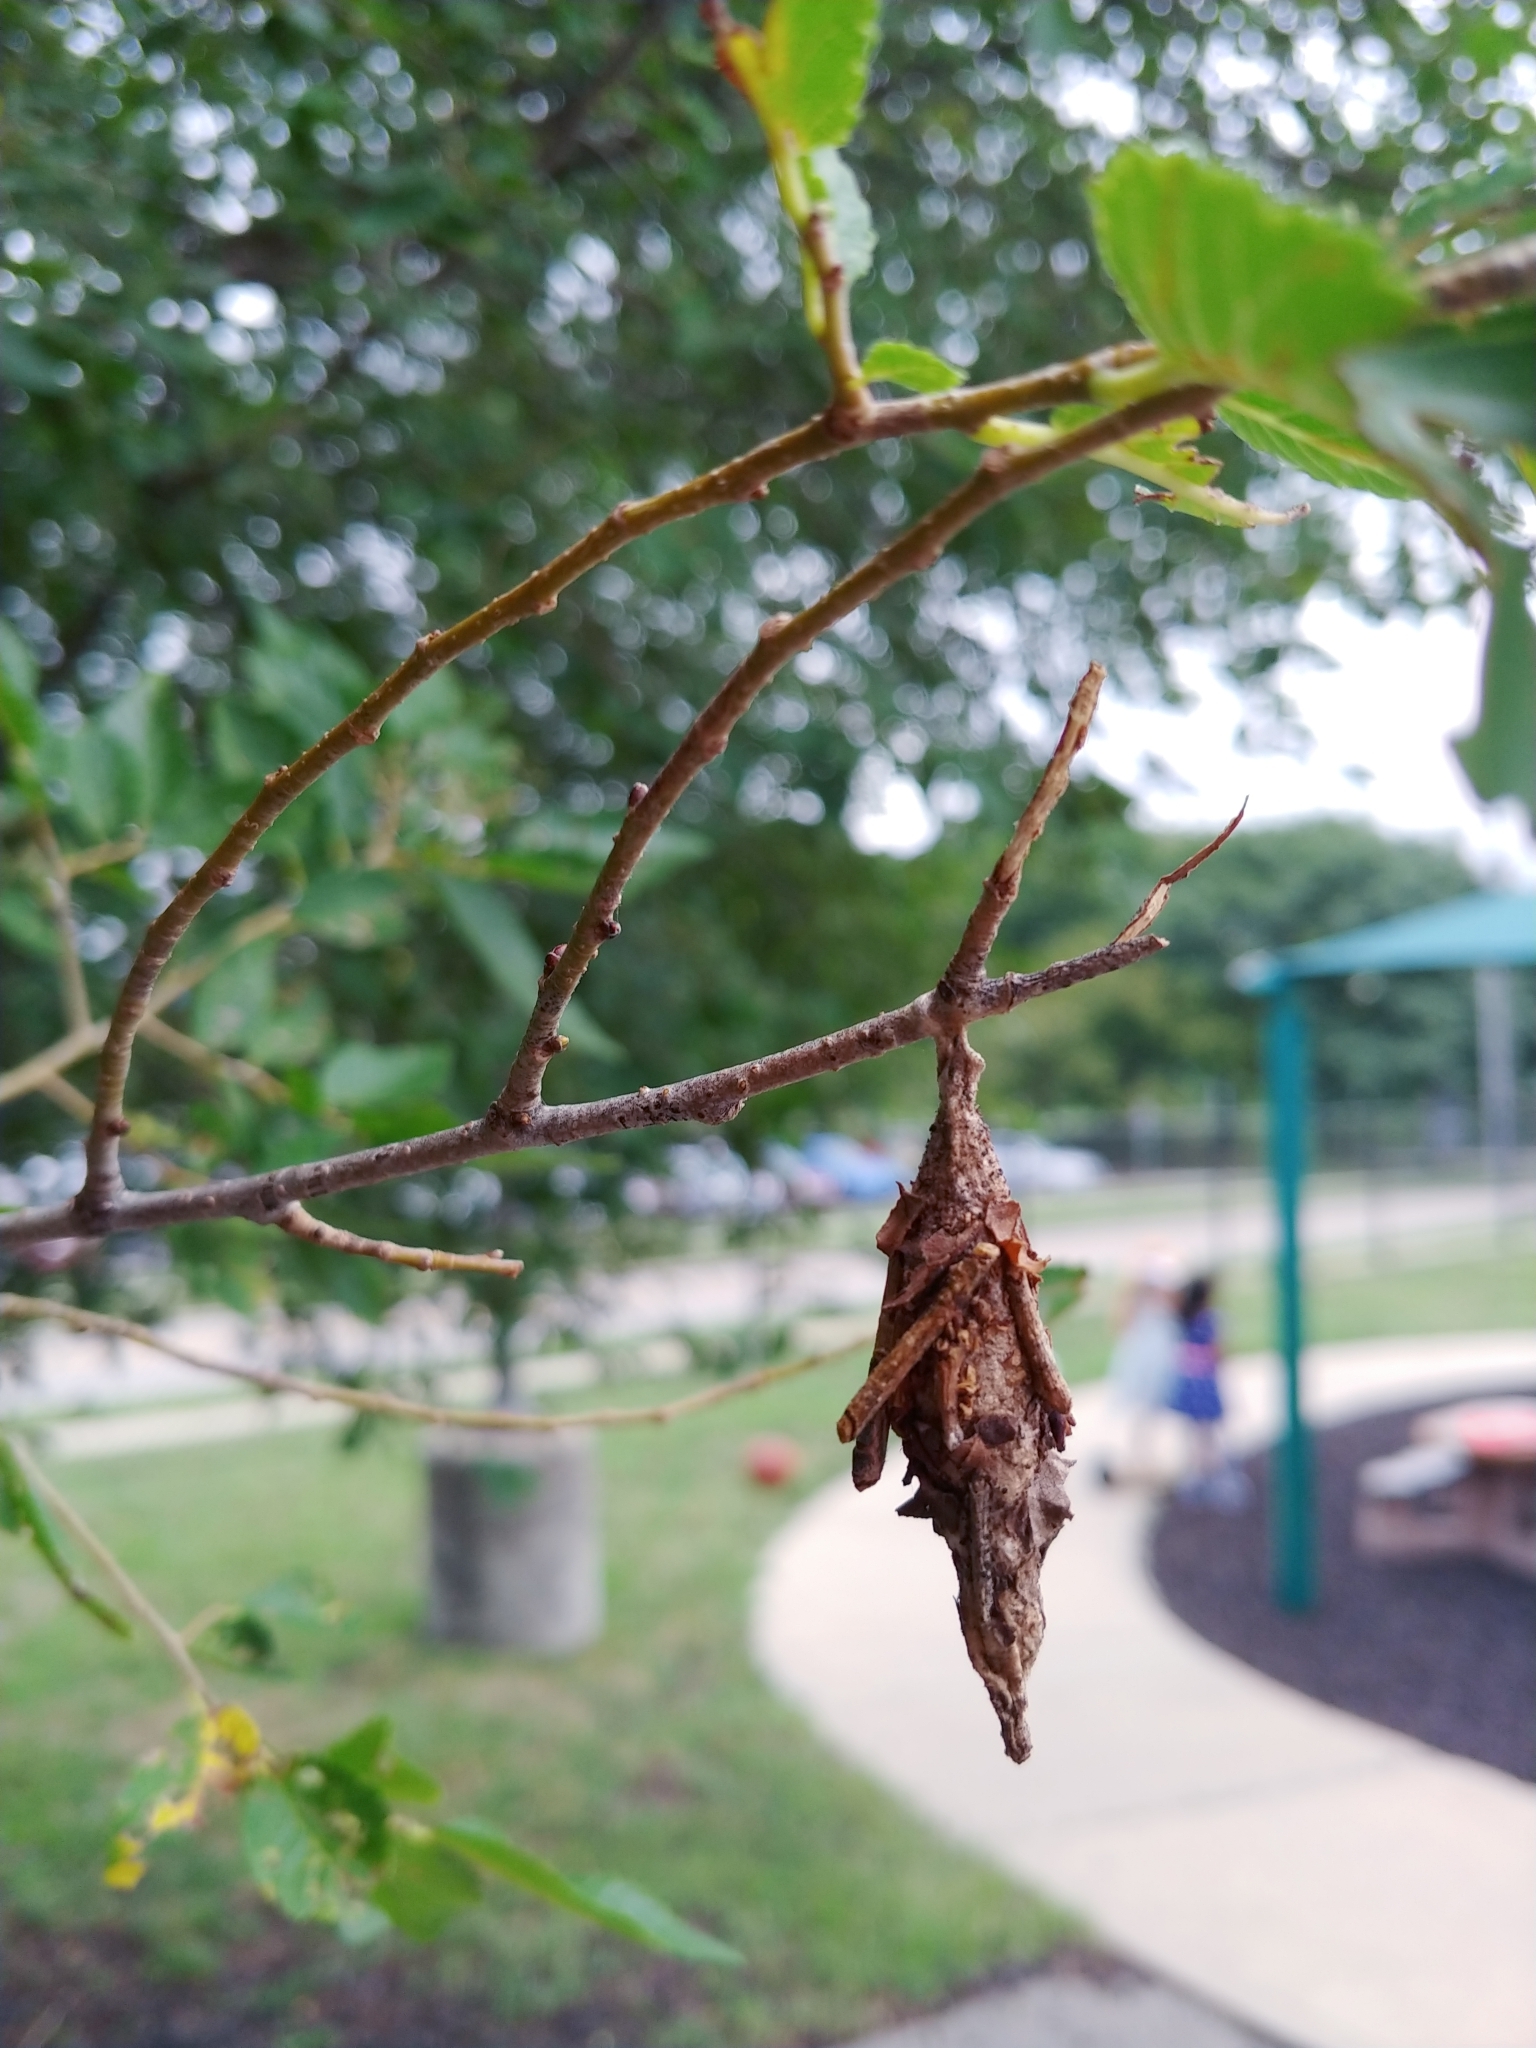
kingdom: Animalia
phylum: Arthropoda
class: Insecta
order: Lepidoptera
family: Psychidae
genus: Thyridopteryx
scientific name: Thyridopteryx ephemeraeformis
